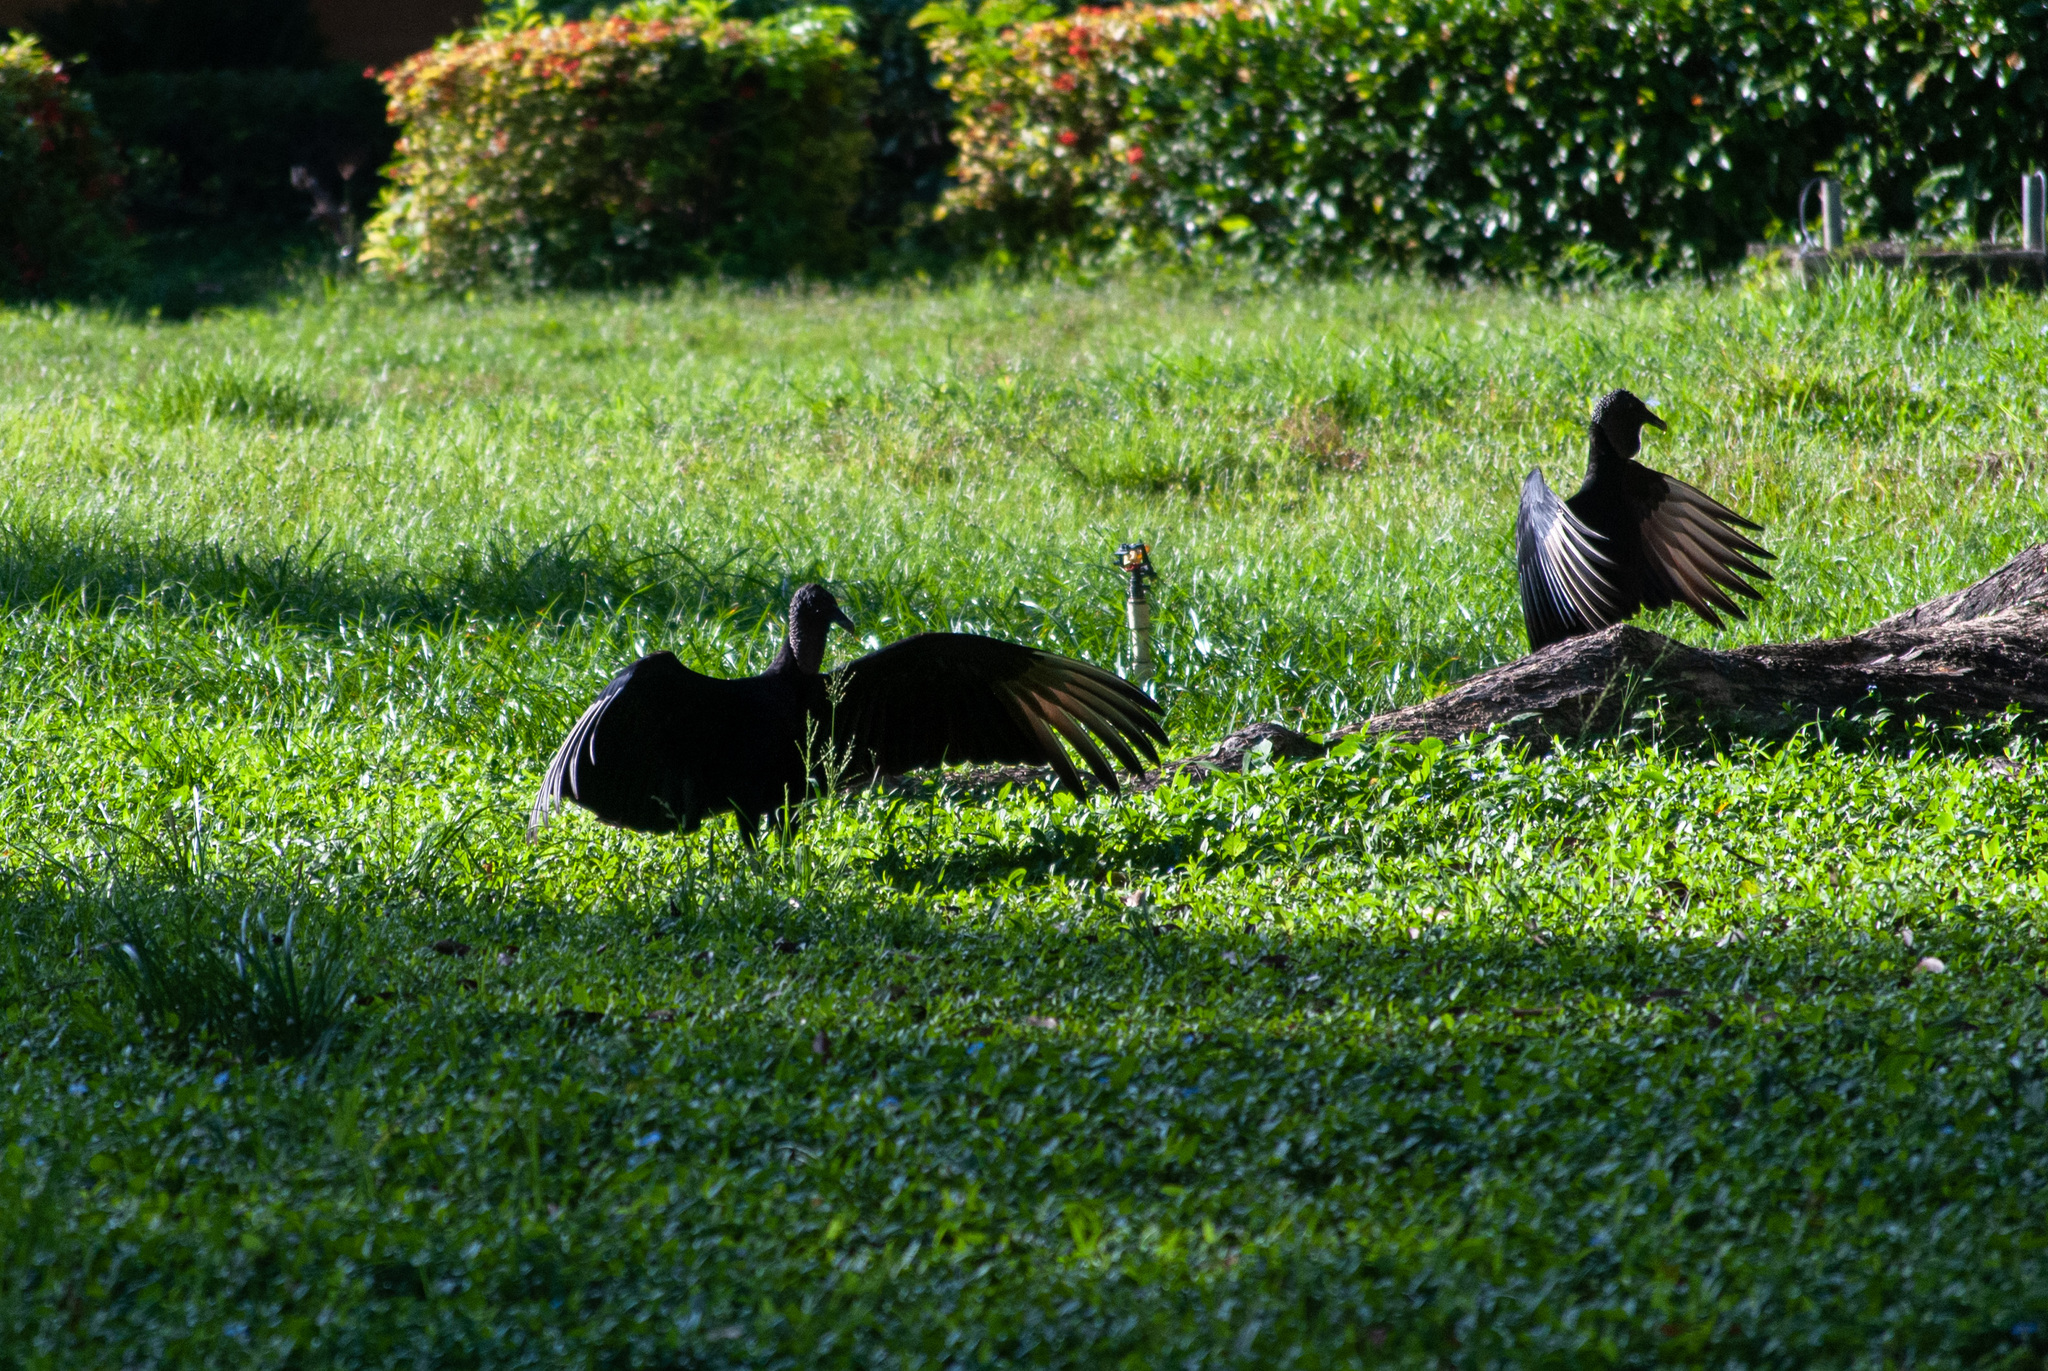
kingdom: Animalia
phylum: Chordata
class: Aves
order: Accipitriformes
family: Cathartidae
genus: Coragyps
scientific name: Coragyps atratus
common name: Black vulture
